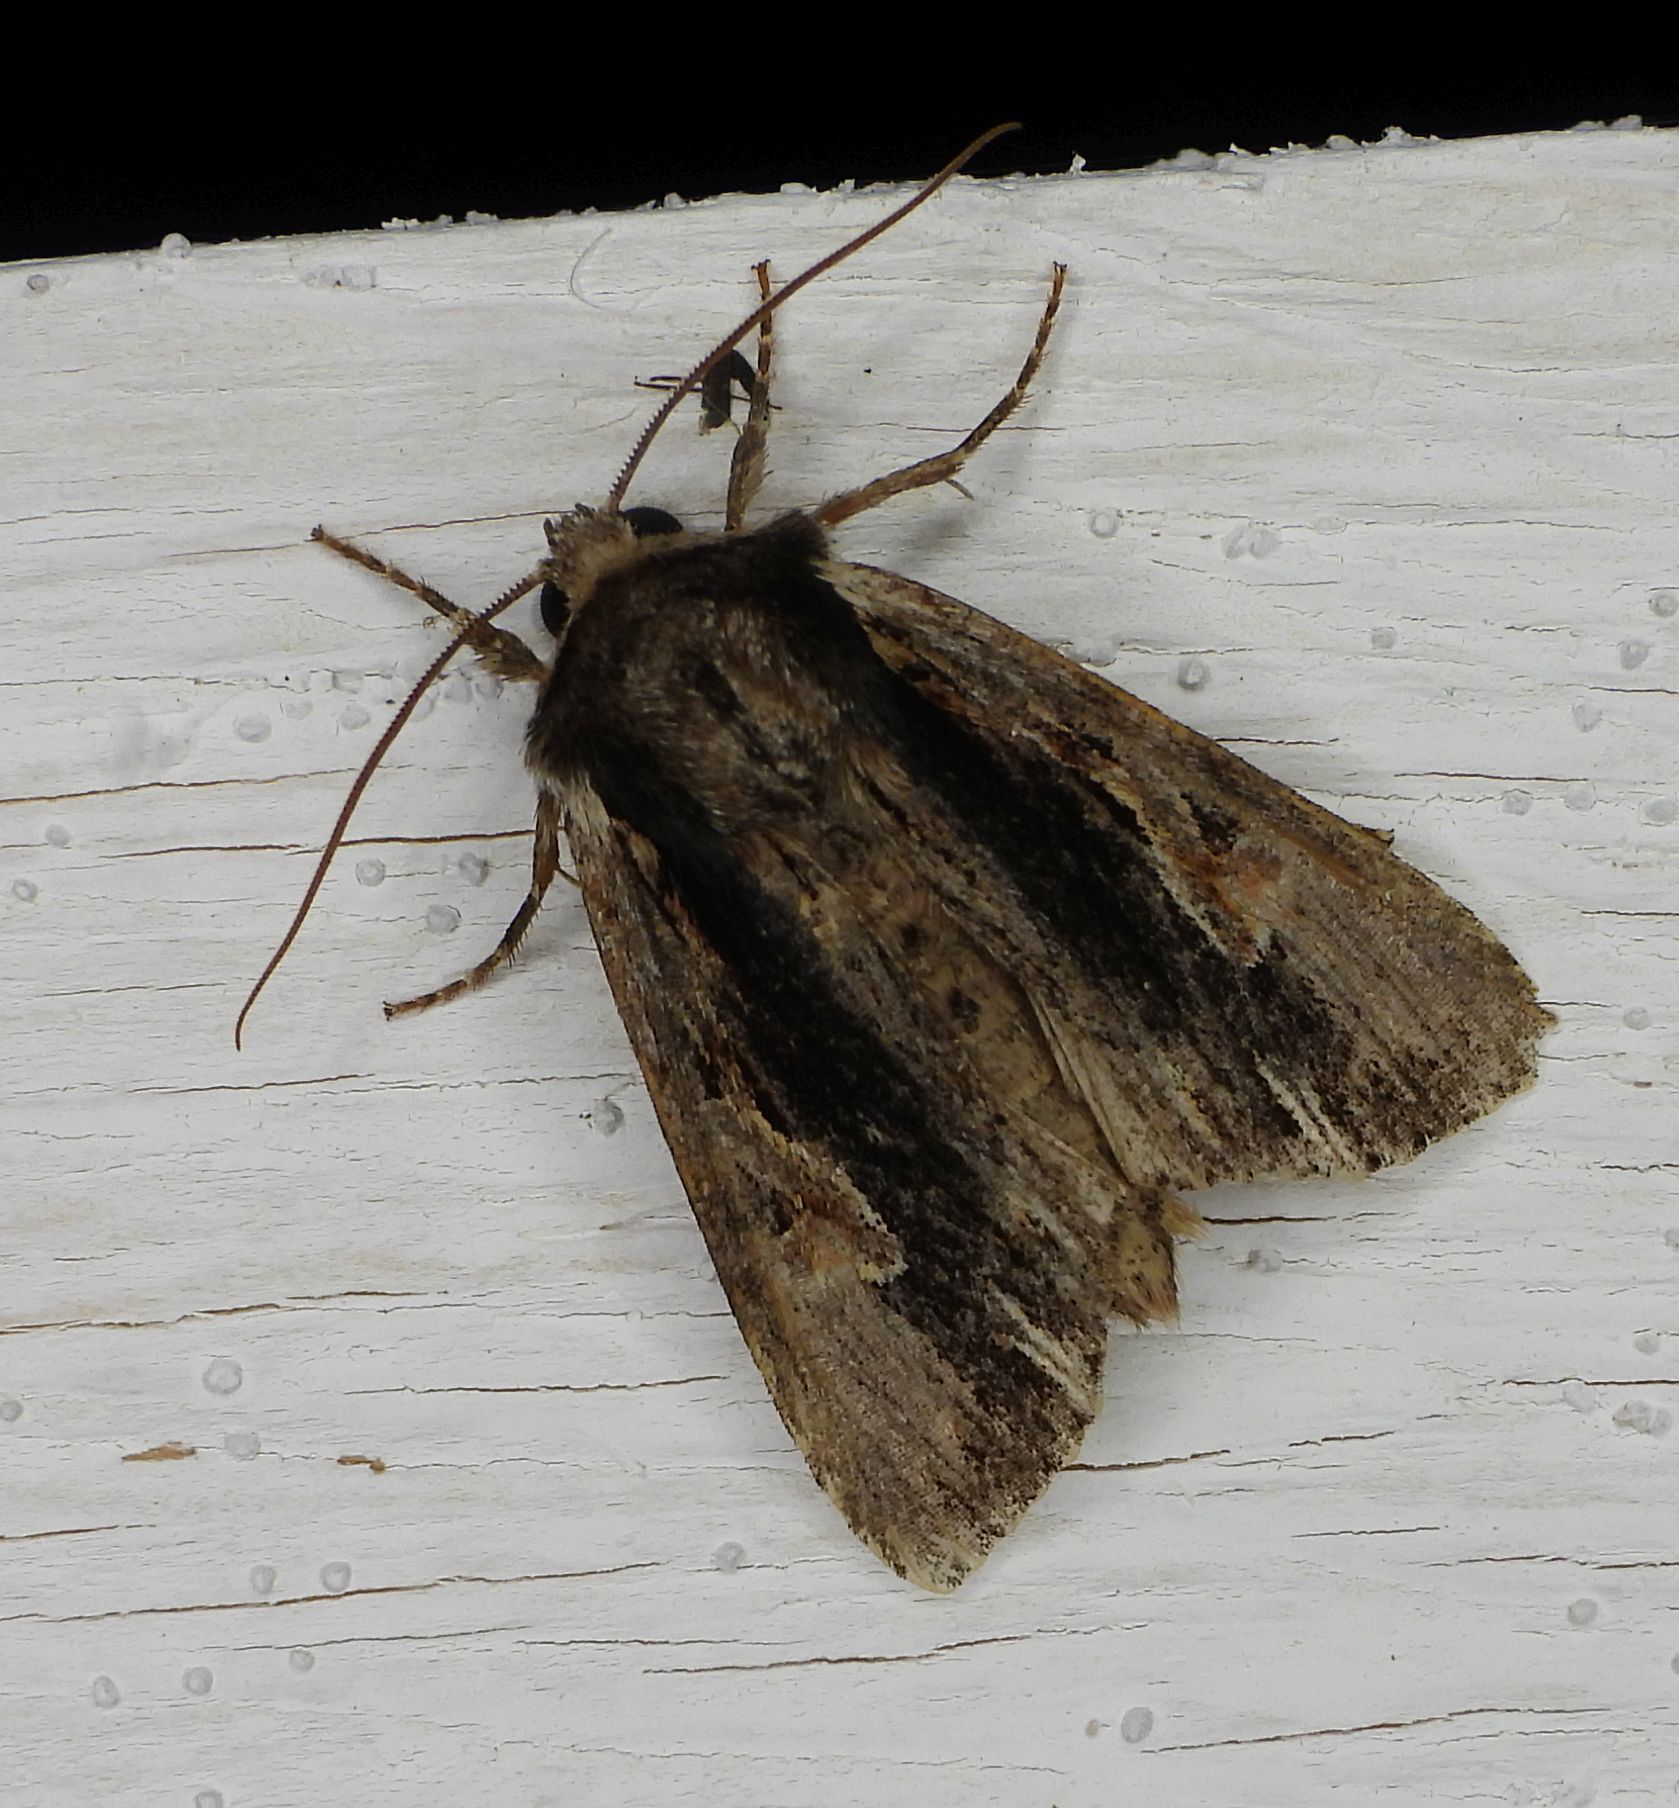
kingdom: Animalia
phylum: Arthropoda
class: Insecta
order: Lepidoptera
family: Noctuidae
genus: Achatia
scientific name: Achatia evicta
